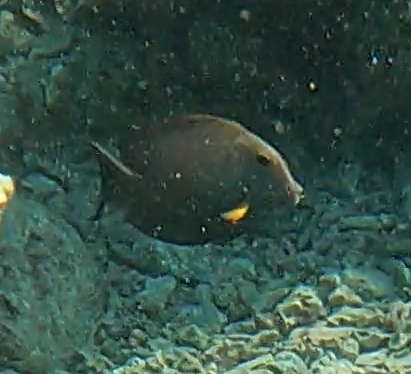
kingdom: Animalia
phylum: Chordata
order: Perciformes
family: Acanthuridae
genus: Ctenochaetus
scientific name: Ctenochaetus striatus
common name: Bristle-toothed surgeonfish
